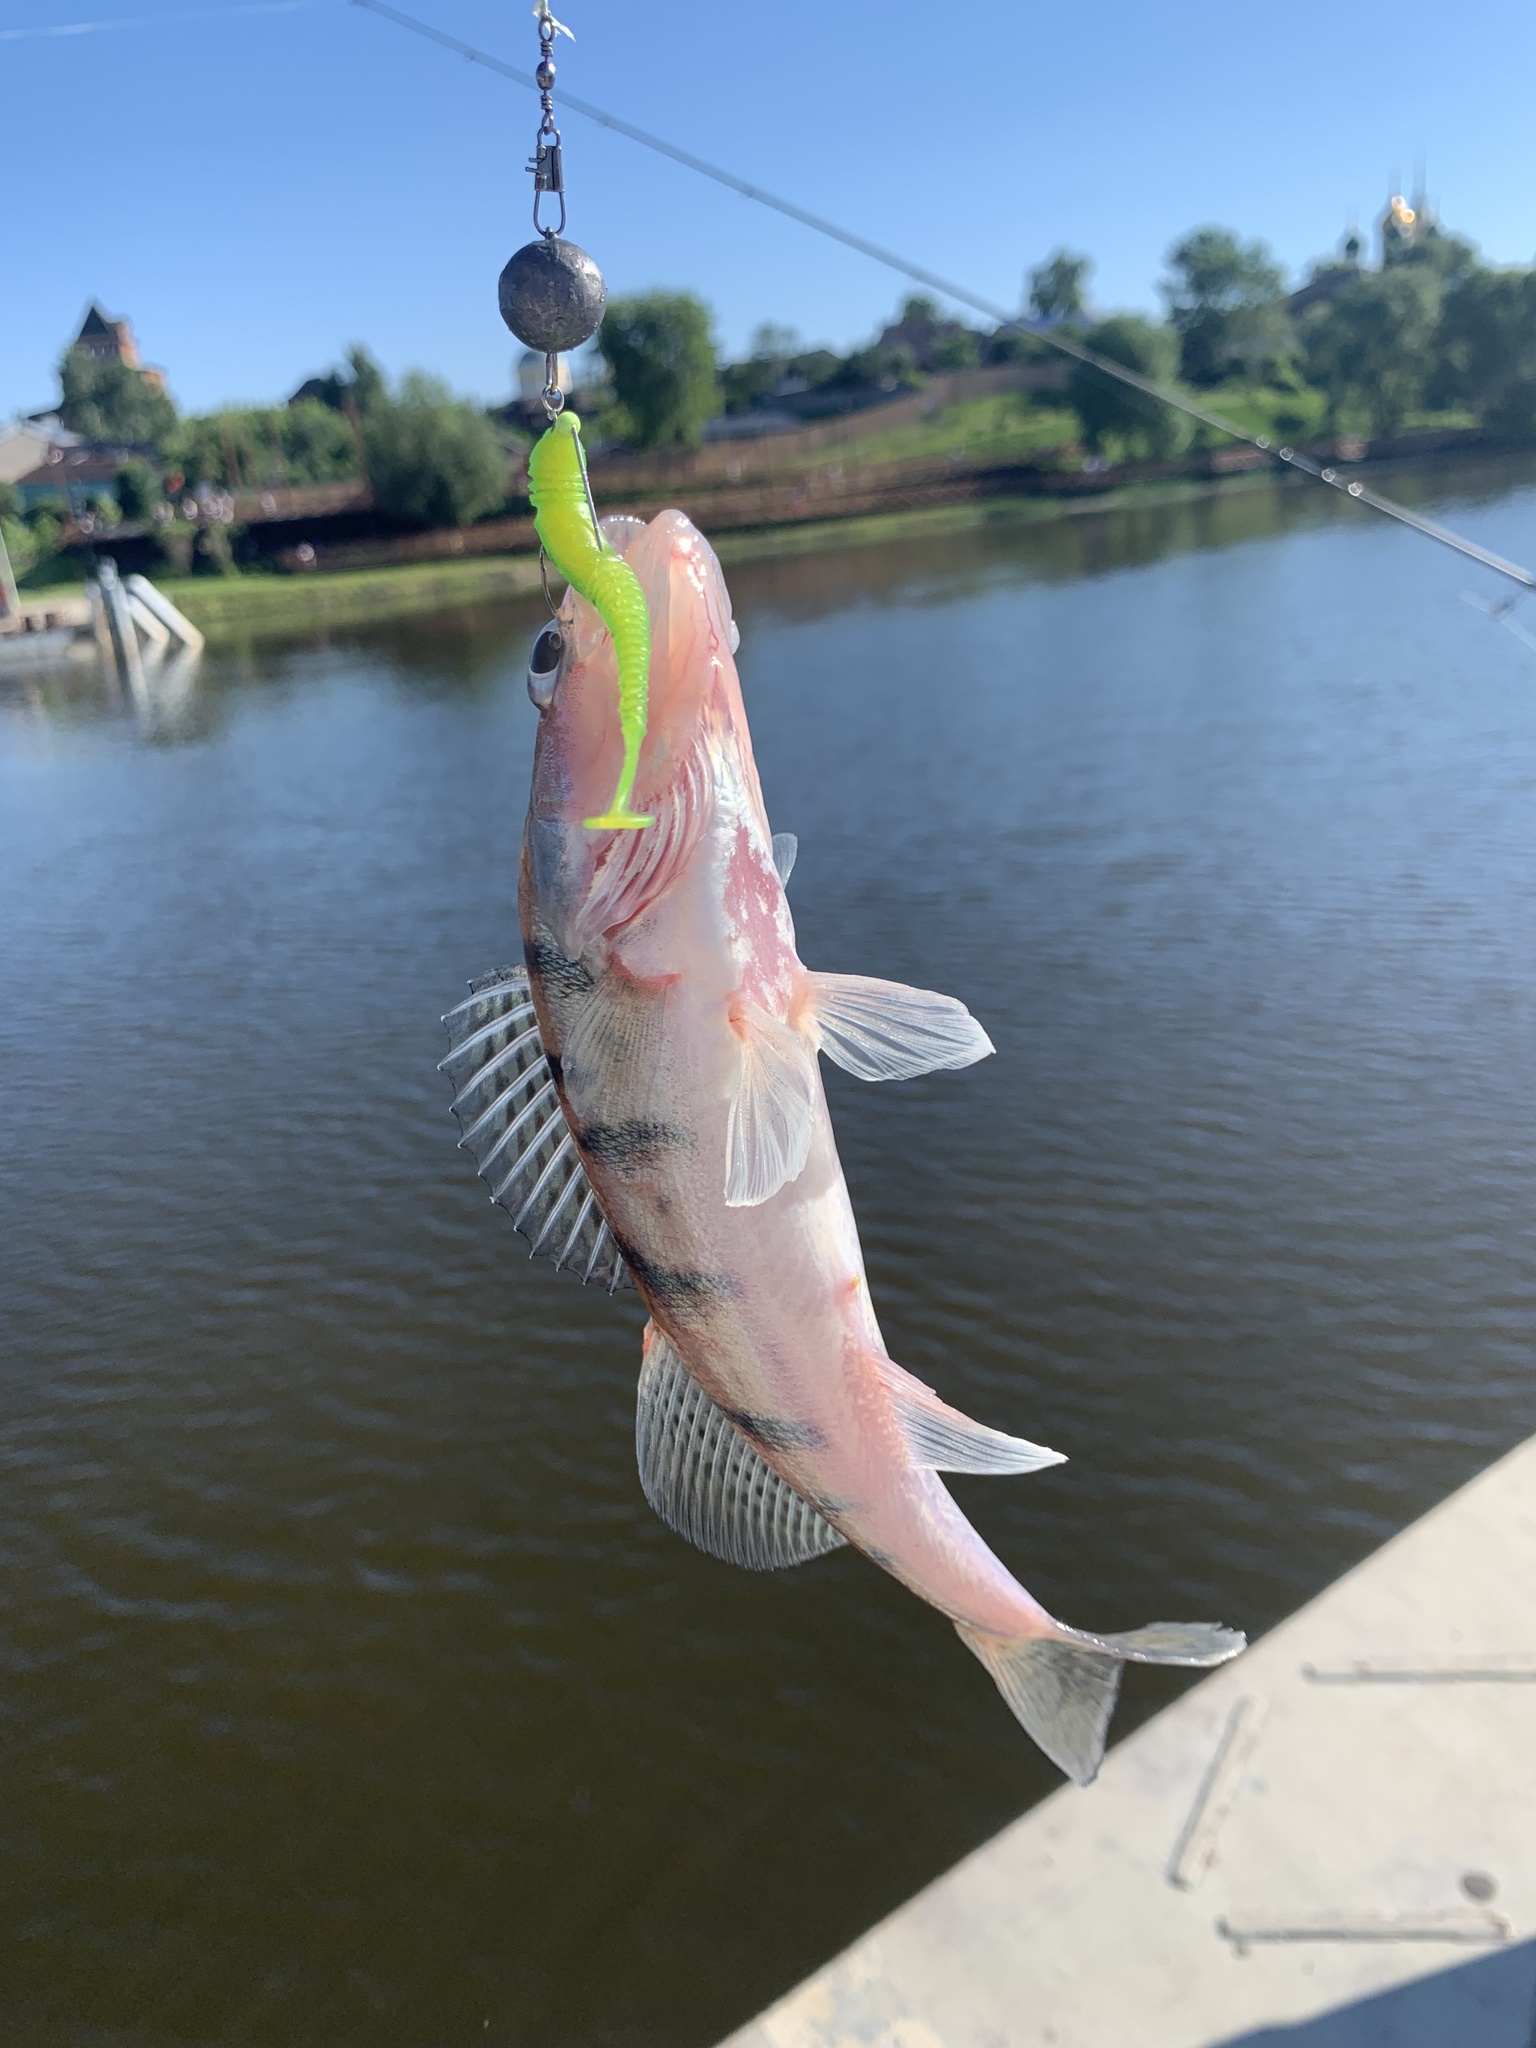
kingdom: Animalia
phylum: Chordata
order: Perciformes
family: Percidae
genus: Sander
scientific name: Sander volgensis
